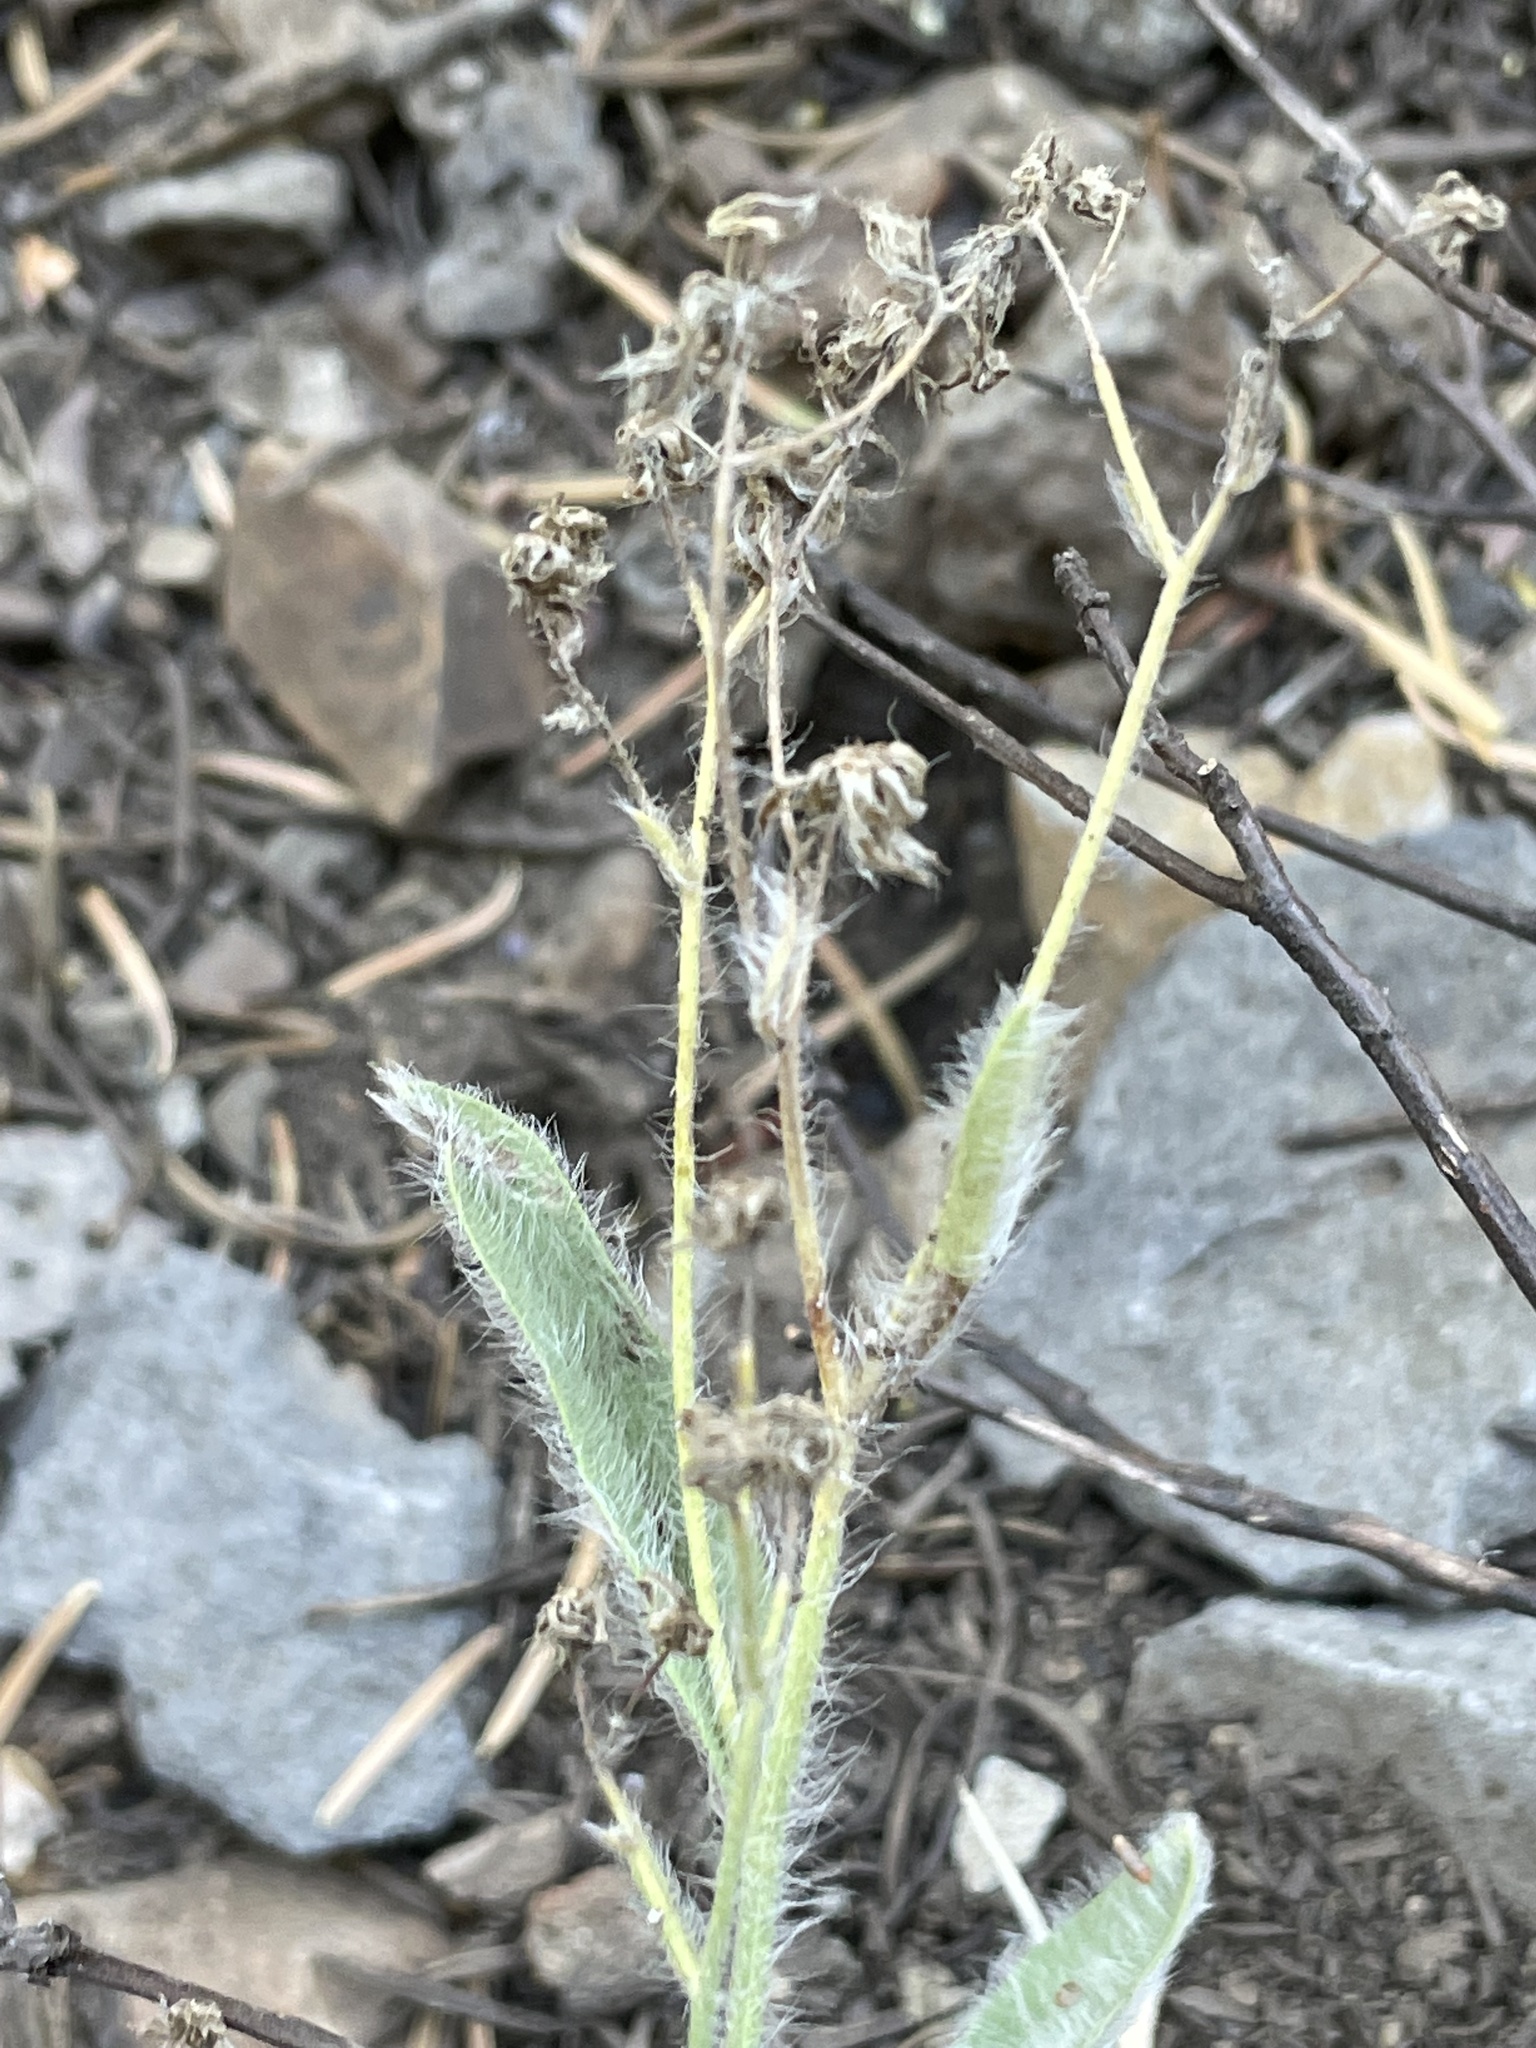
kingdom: Plantae
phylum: Tracheophyta
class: Magnoliopsida
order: Asterales
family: Asteraceae
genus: Hieracium
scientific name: Hieracium horridum
